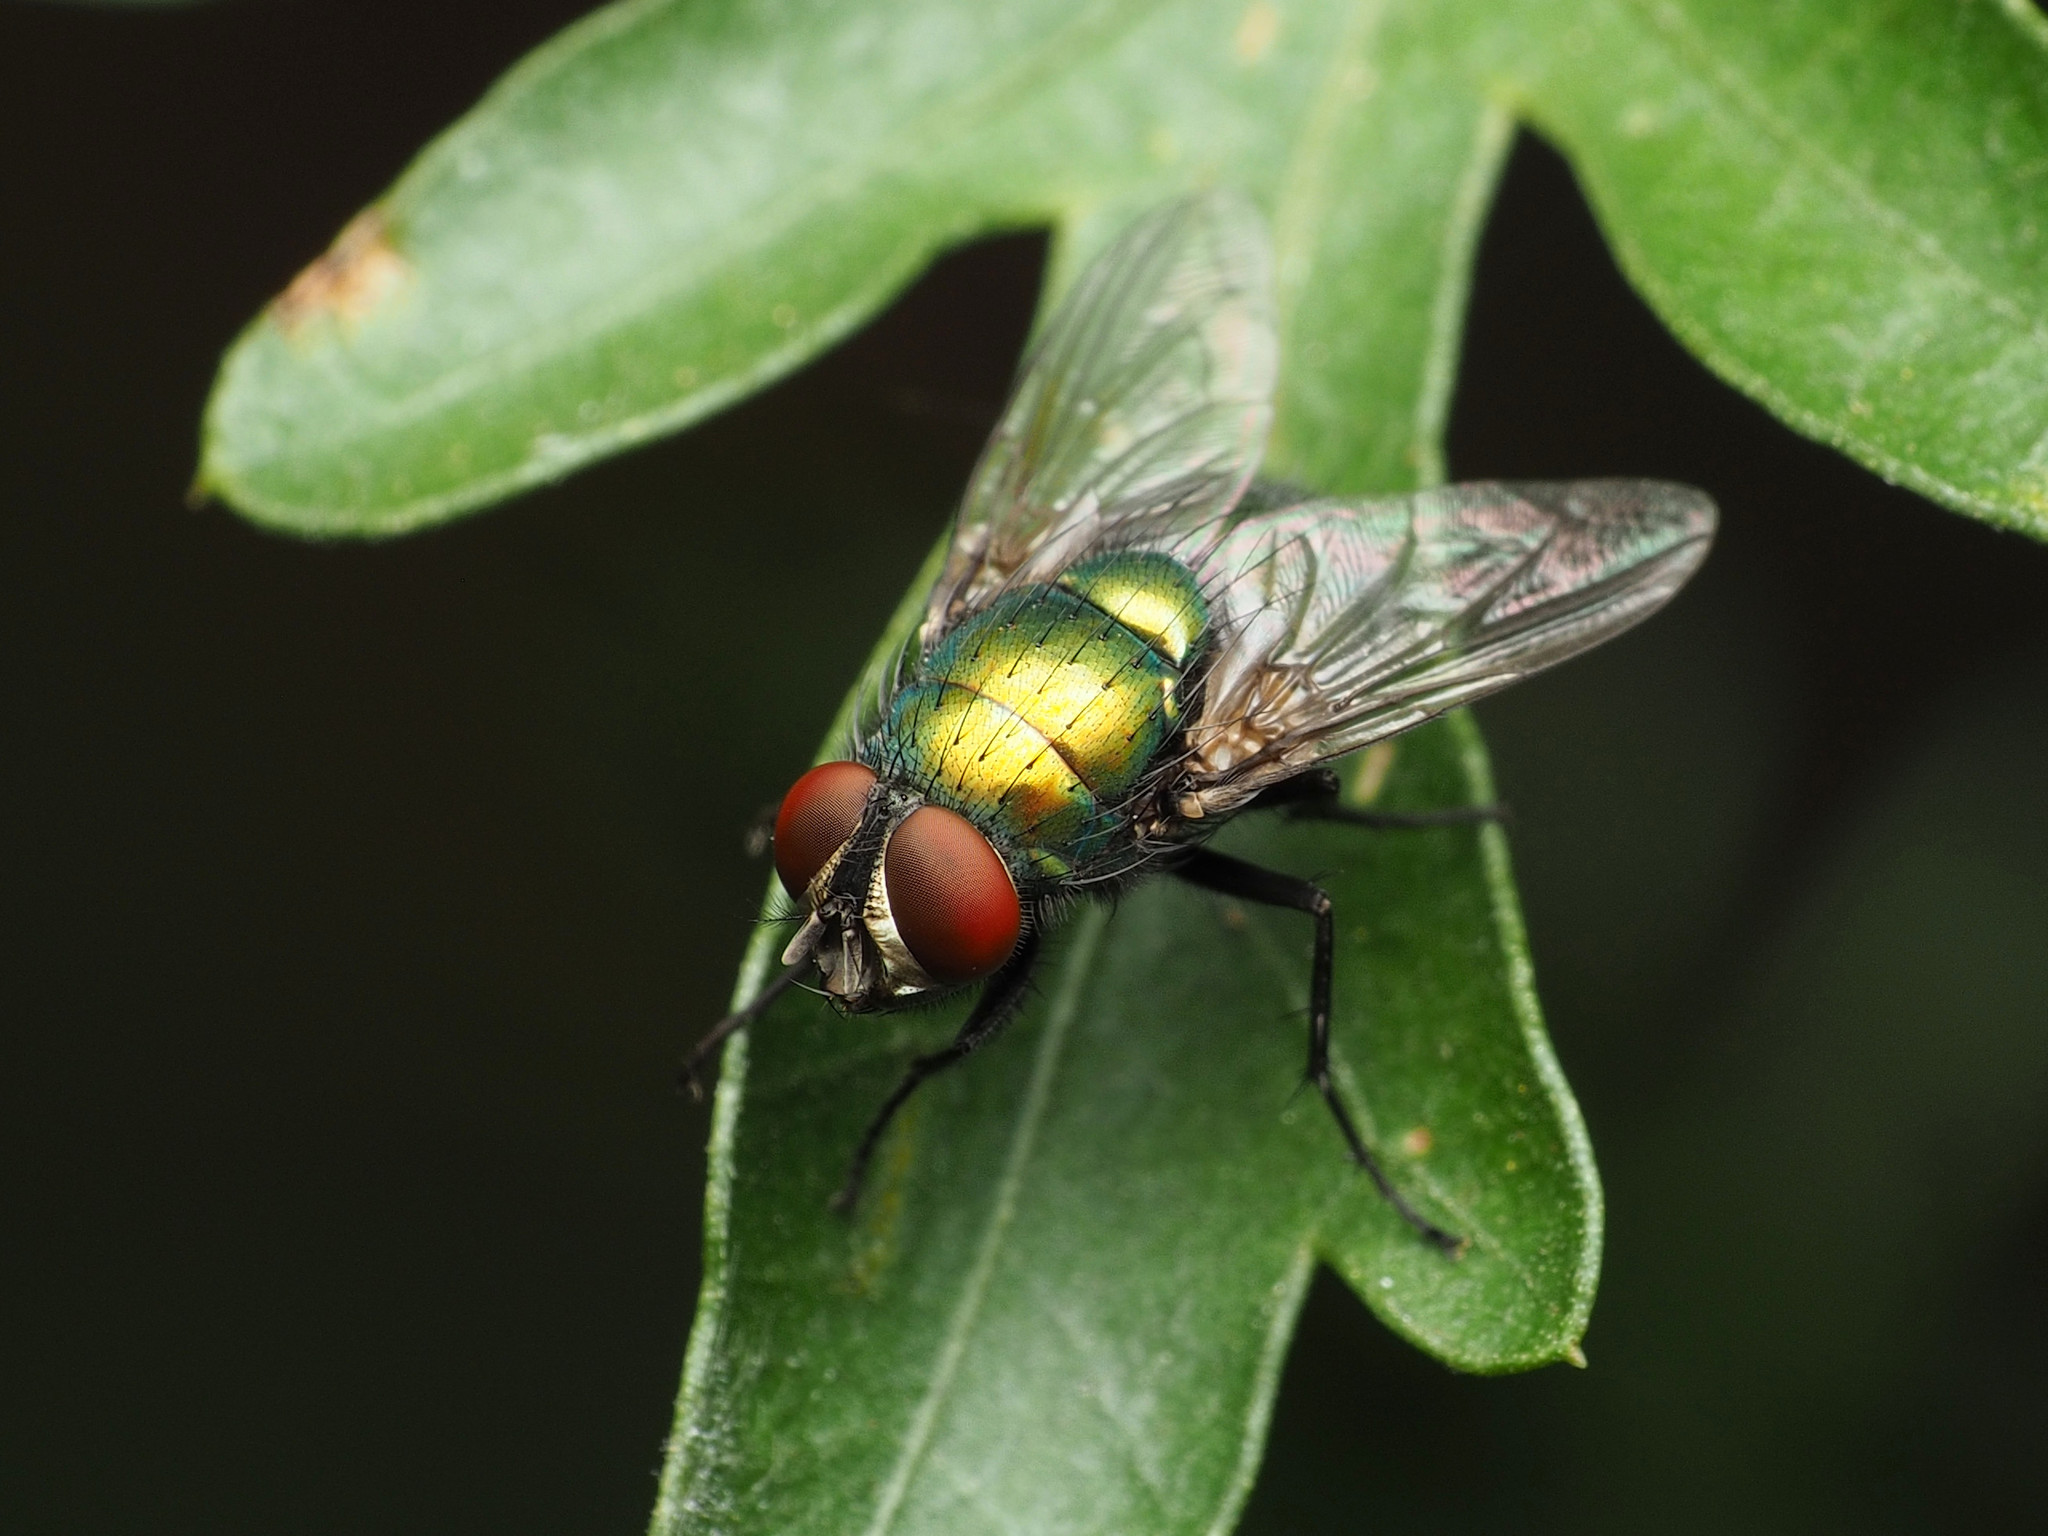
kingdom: Animalia
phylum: Arthropoda
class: Insecta
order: Diptera
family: Calliphoridae
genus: Lucilia
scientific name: Lucilia sericata
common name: Blow fly
